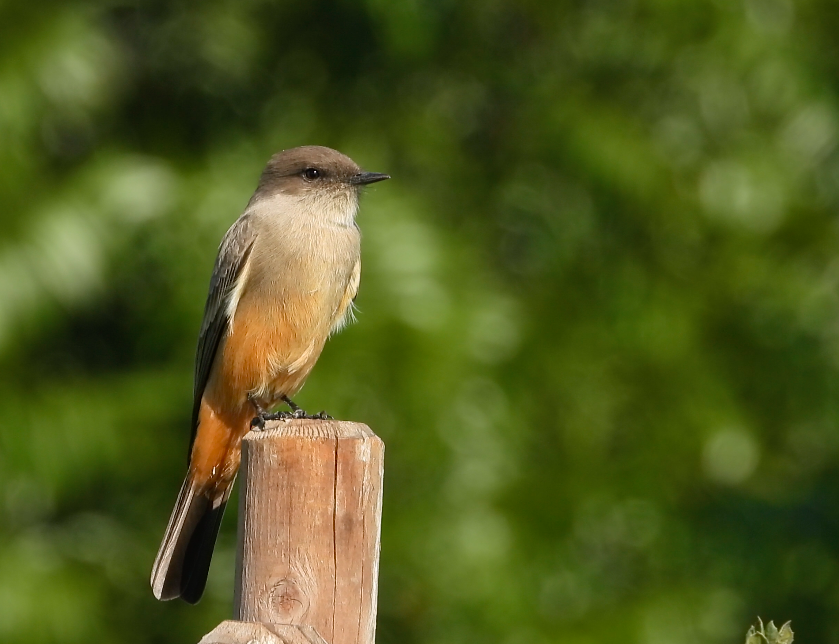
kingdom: Animalia
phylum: Chordata
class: Aves
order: Passeriformes
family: Tyrannidae
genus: Sayornis
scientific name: Sayornis saya
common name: Say's phoebe
